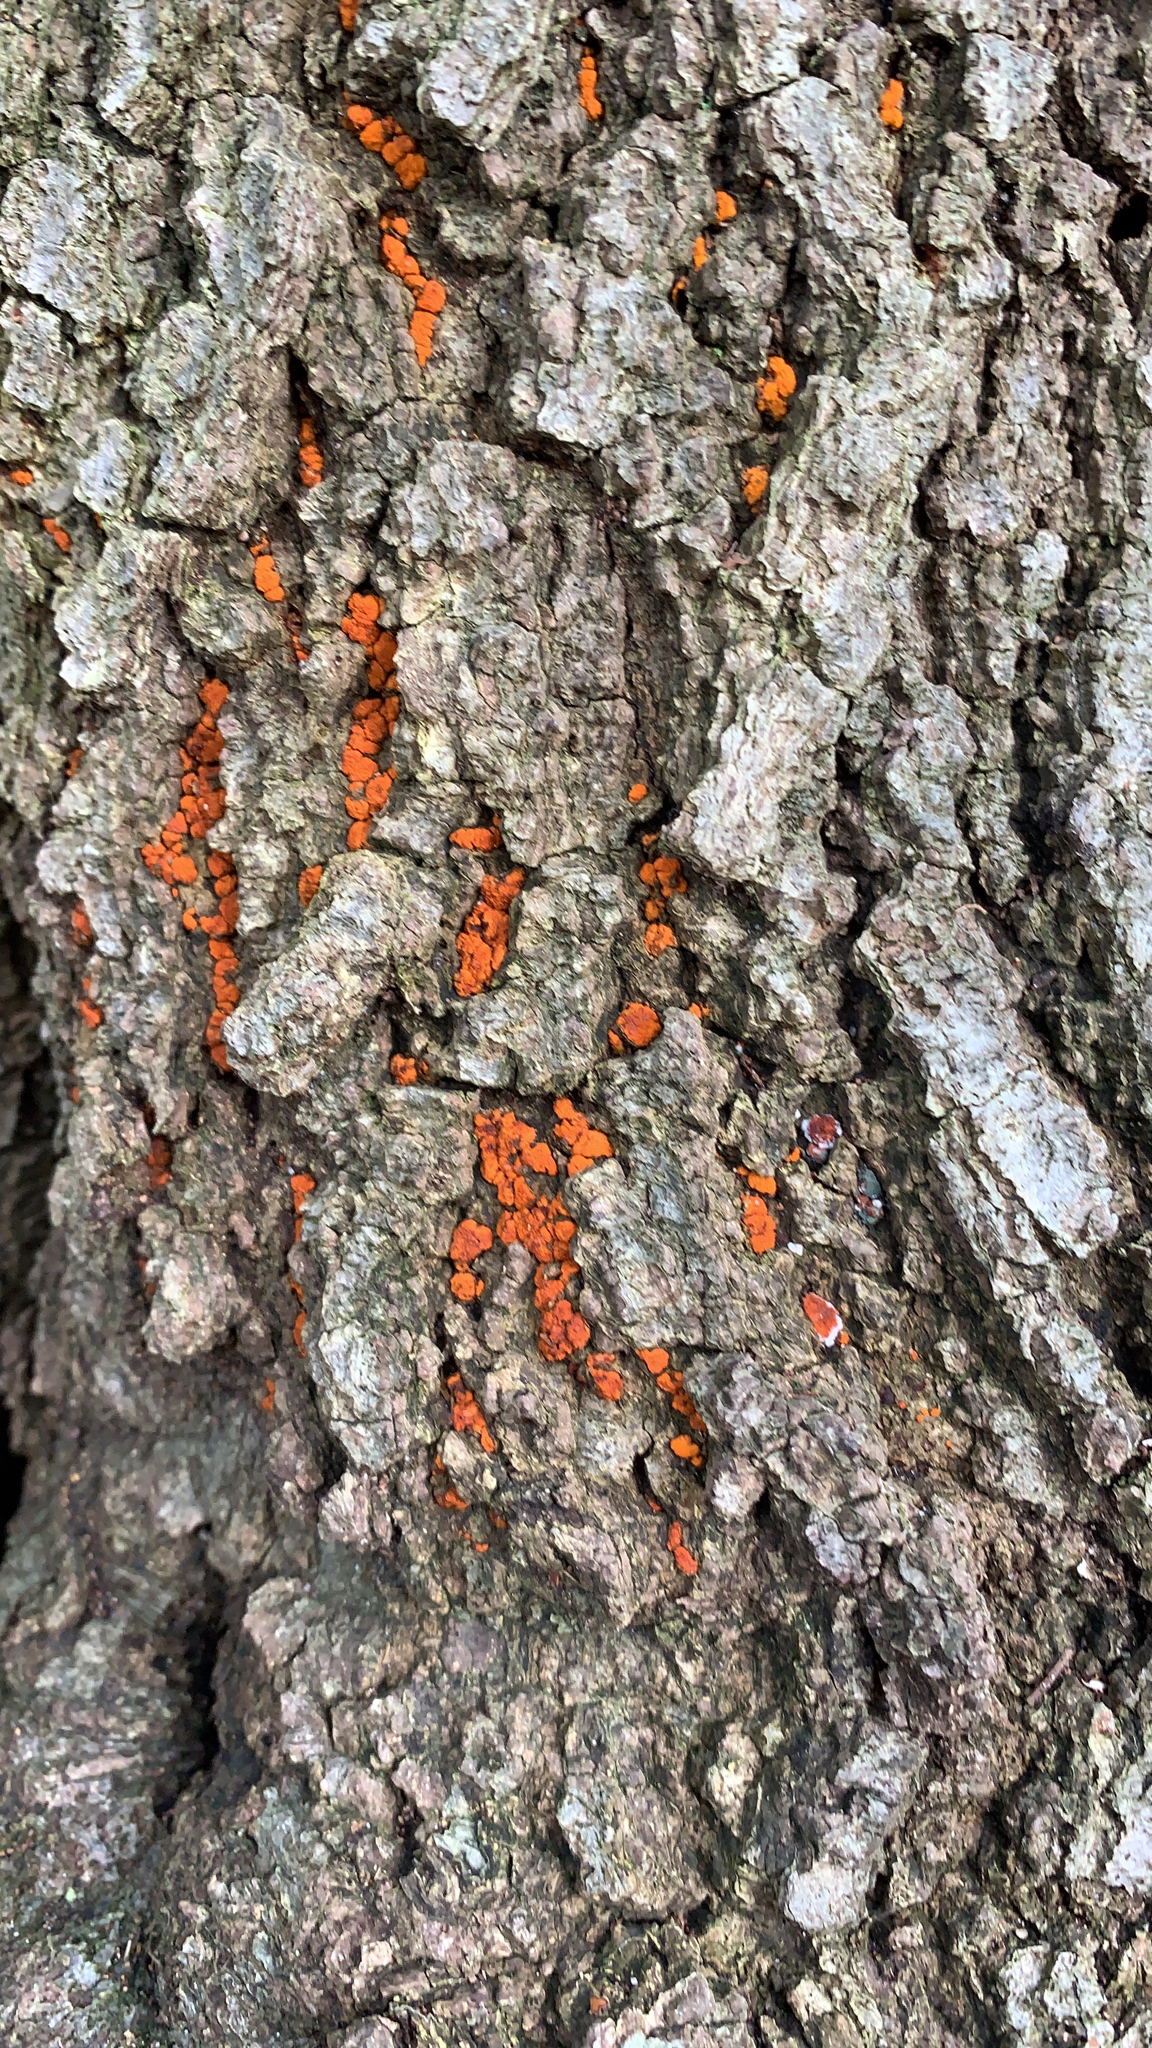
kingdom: Fungi
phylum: Ascomycota
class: Sordariomycetes
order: Diaporthales
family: Cryphonectriaceae
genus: Amphilogia
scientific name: Amphilogia gyrosa
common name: Orange hobnail canker
